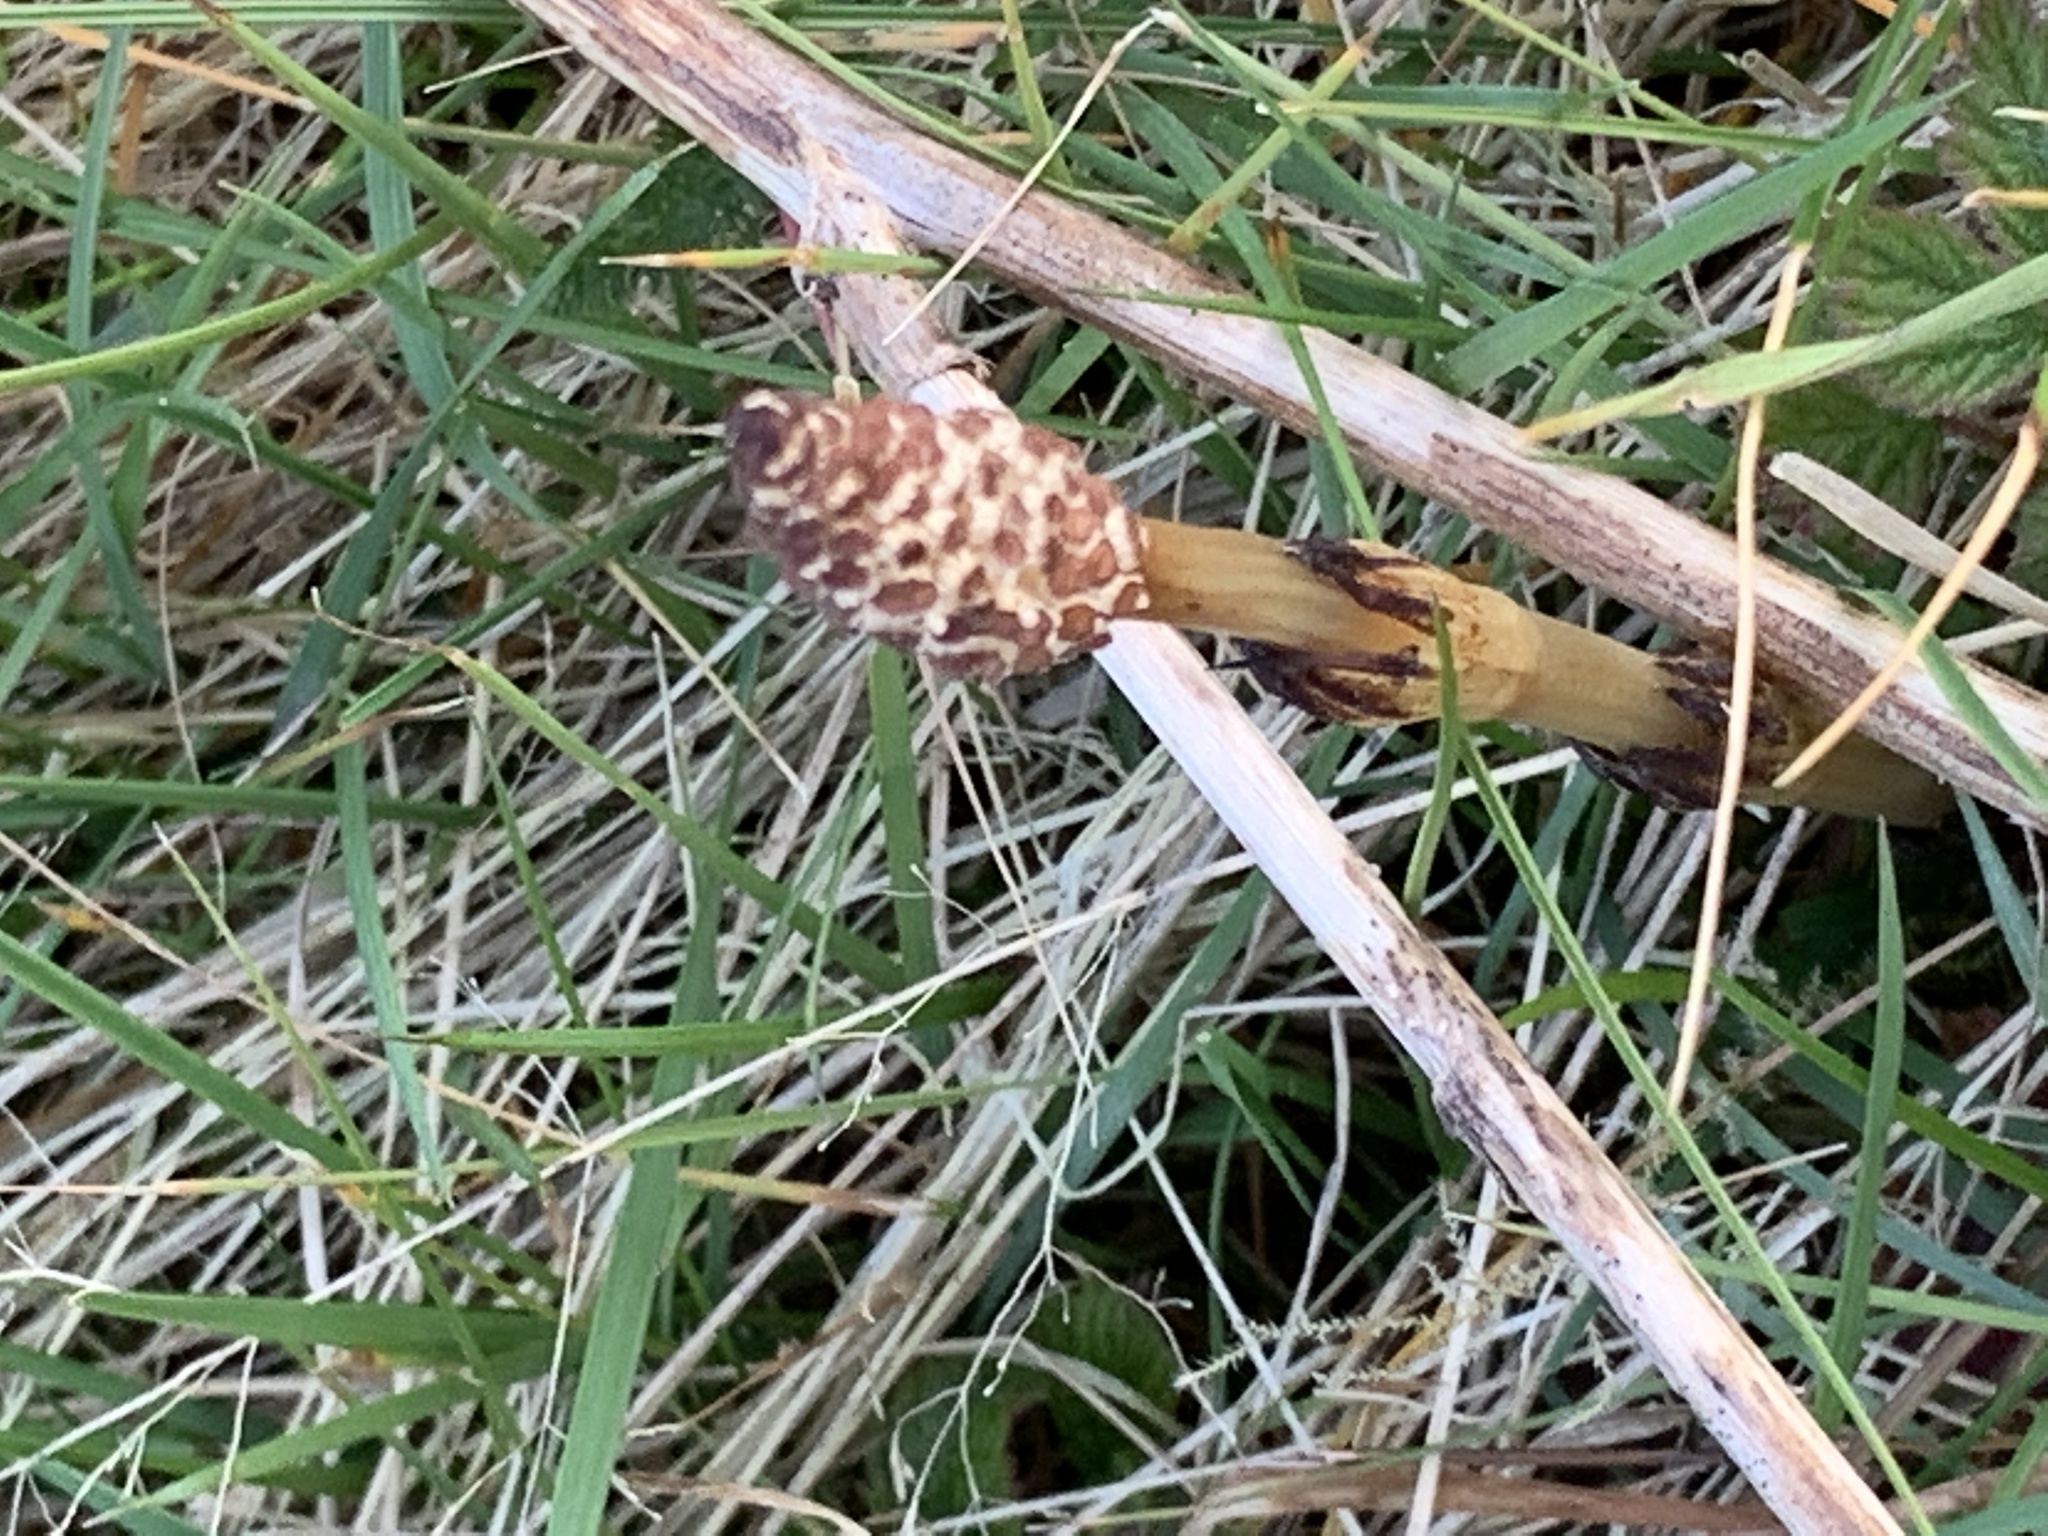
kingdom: Plantae
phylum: Tracheophyta
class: Polypodiopsida
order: Equisetales
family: Equisetaceae
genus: Equisetum
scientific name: Equisetum arvense
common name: Field horsetail
